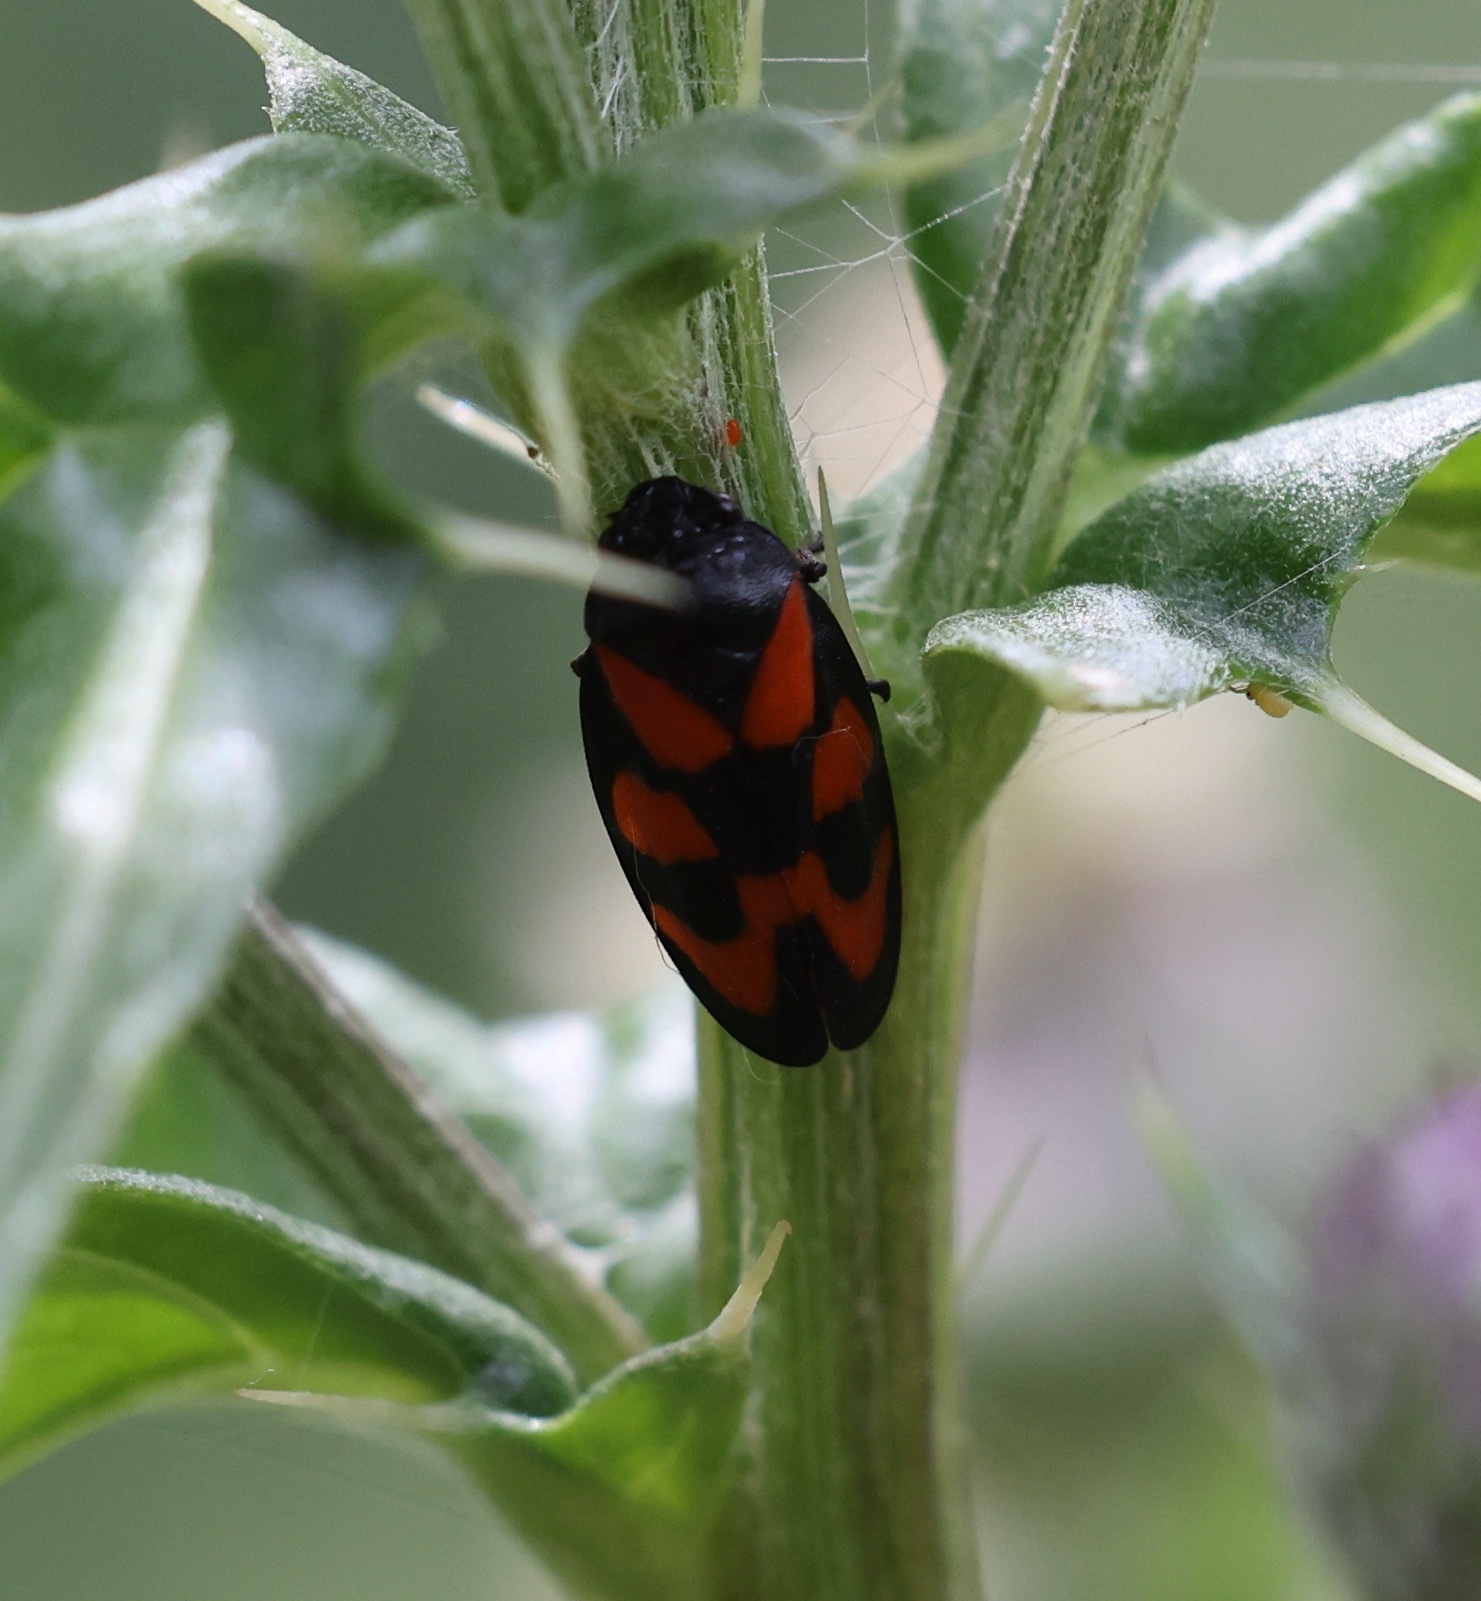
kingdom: Animalia
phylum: Arthropoda
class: Insecta
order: Hemiptera
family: Cercopidae
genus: Cercopis
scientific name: Cercopis vulnerata
